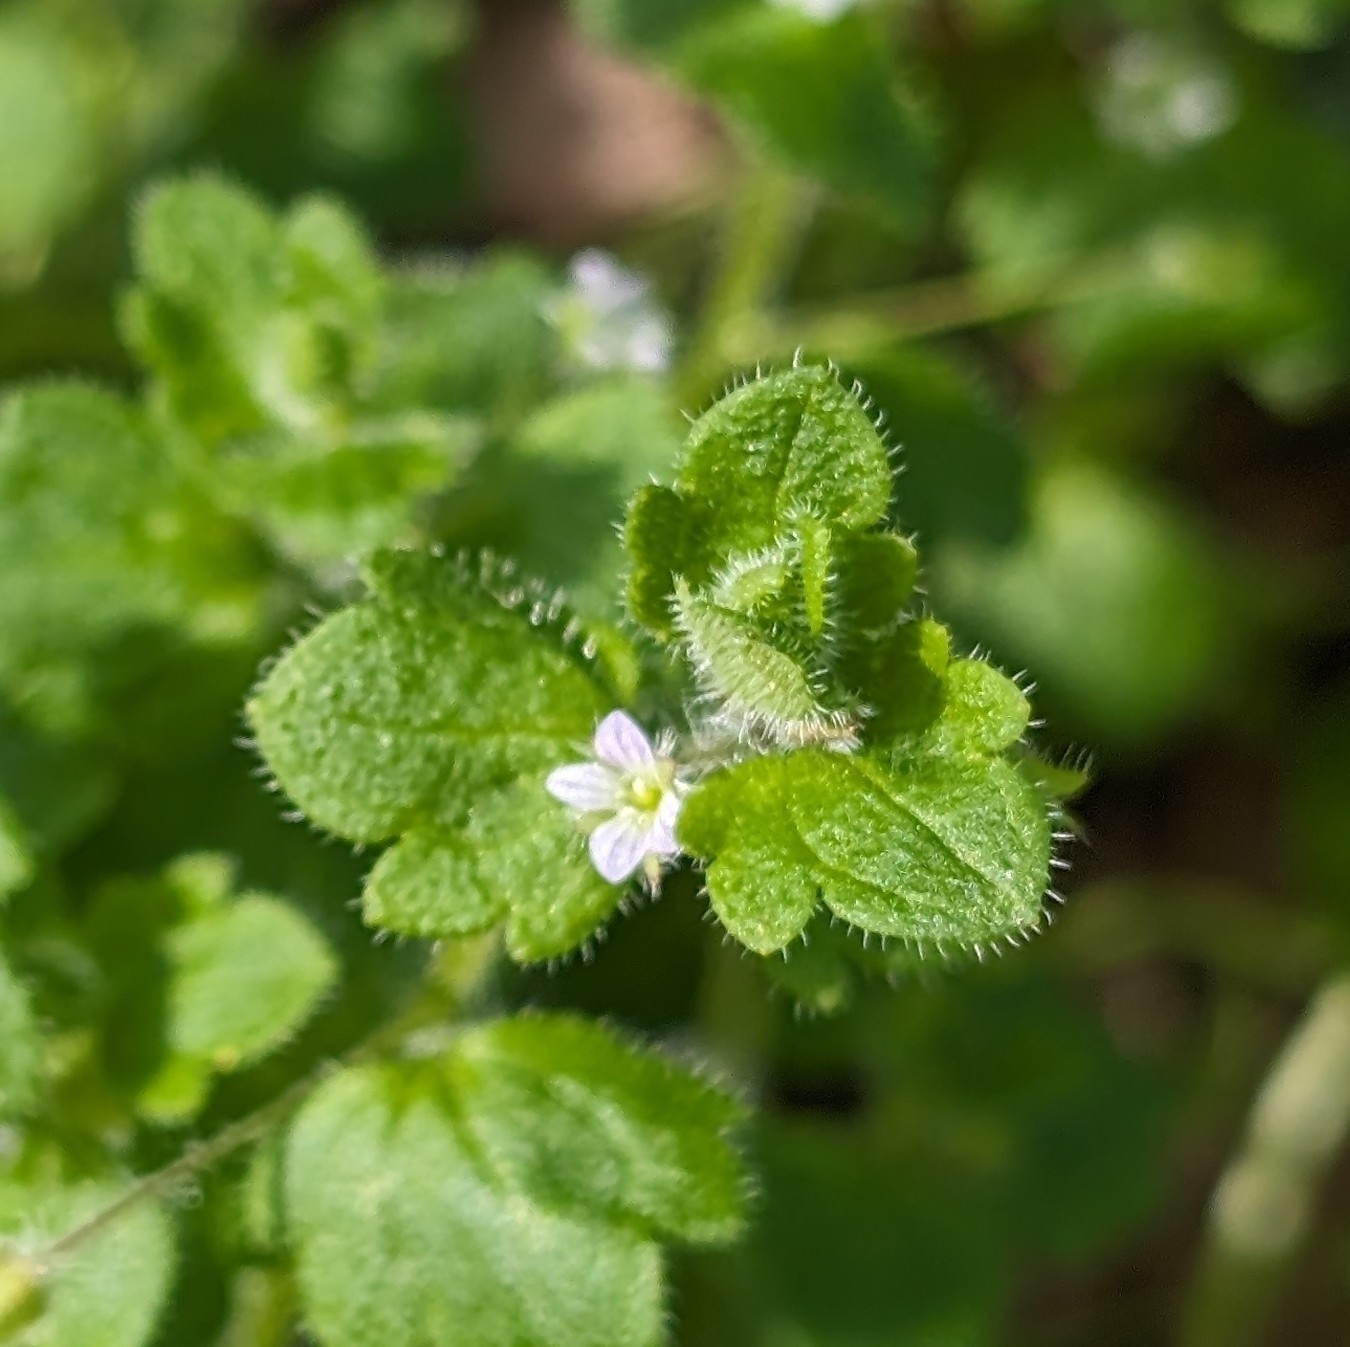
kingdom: Plantae
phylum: Tracheophyta
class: Magnoliopsida
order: Lamiales
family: Plantaginaceae
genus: Veronica
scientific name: Veronica sublobata
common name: False ivy-leaved speedwell
